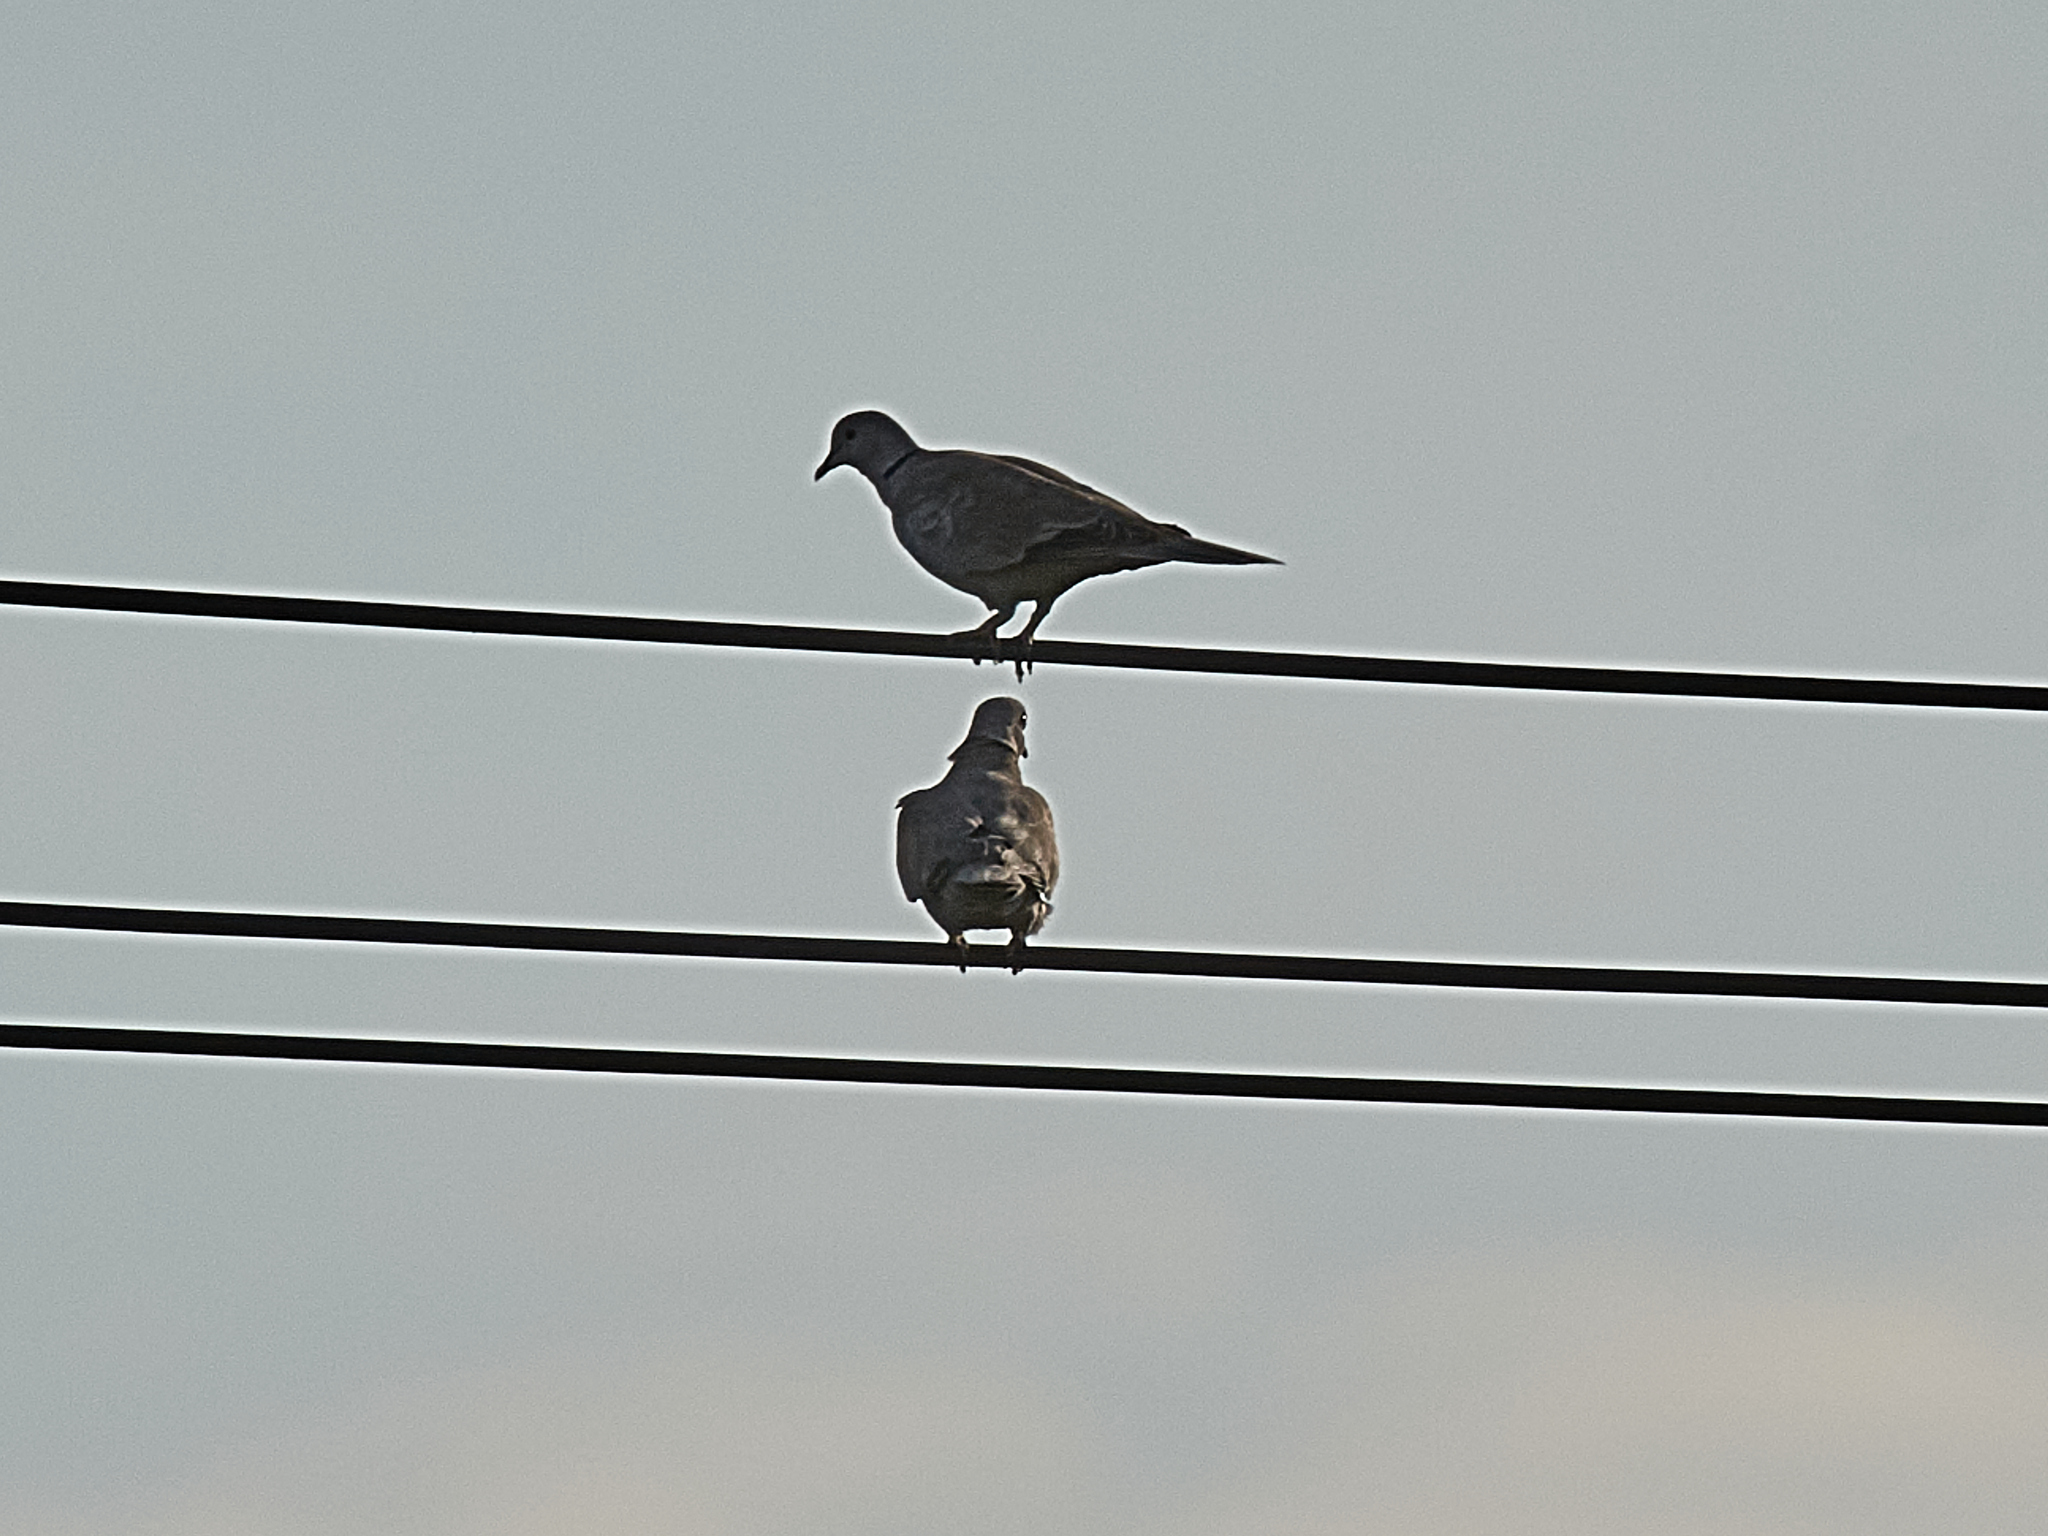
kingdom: Animalia
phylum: Chordata
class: Aves
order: Columbiformes
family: Columbidae
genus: Streptopelia
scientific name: Streptopelia decaocto
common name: Eurasian collared dove
